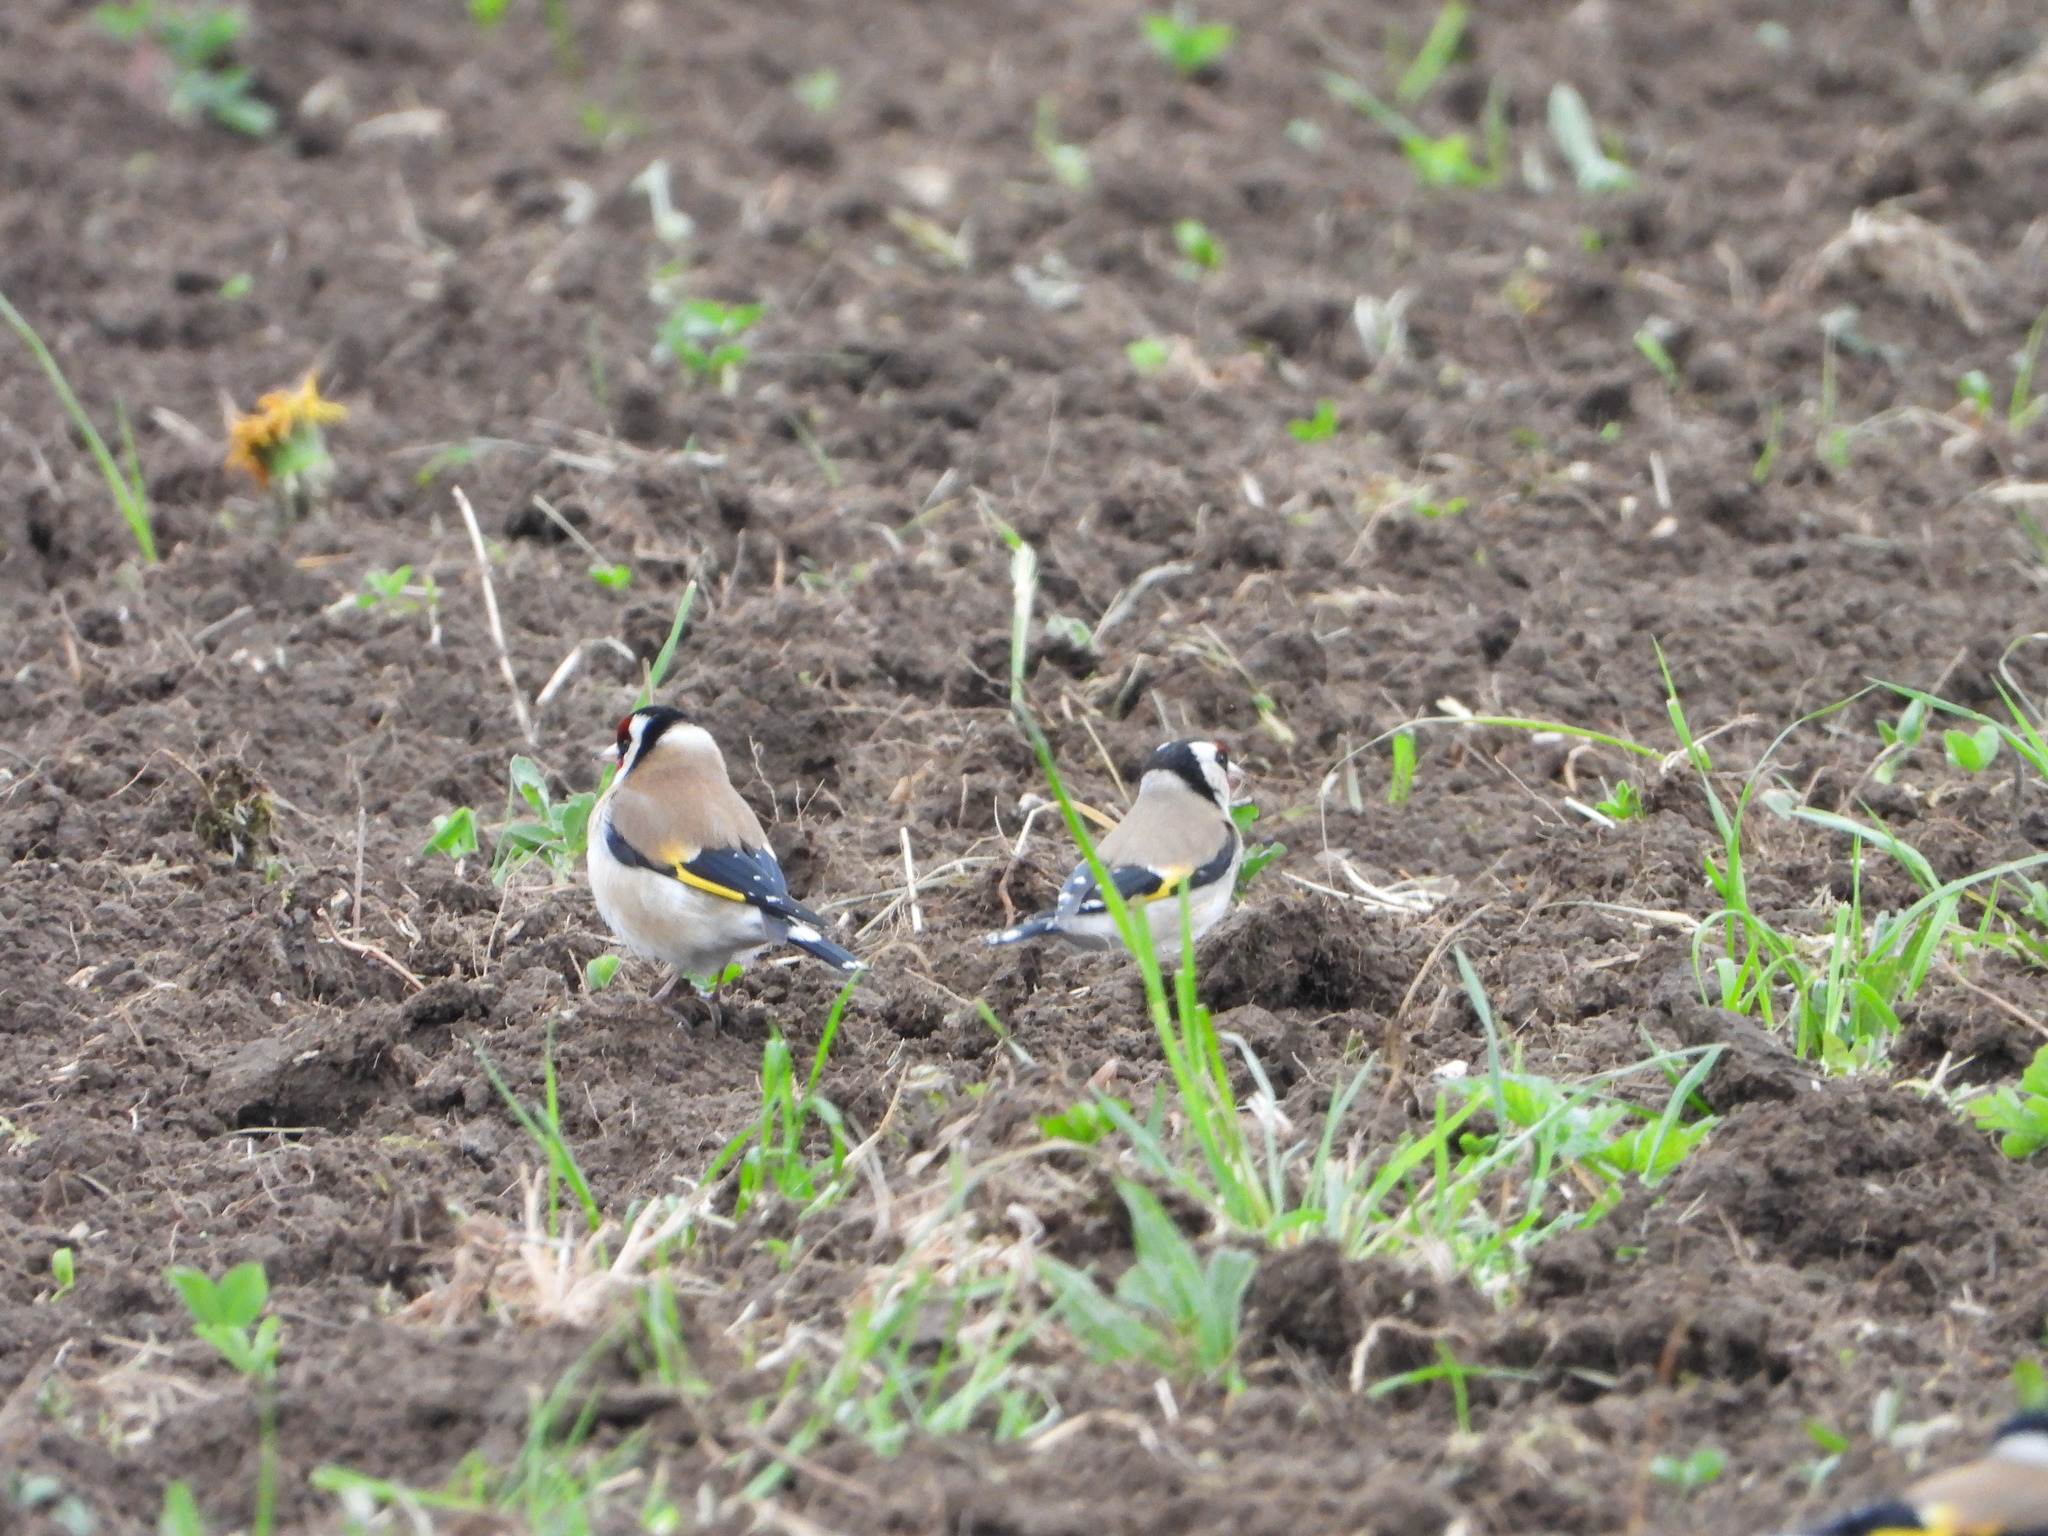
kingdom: Animalia
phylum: Chordata
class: Aves
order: Passeriformes
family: Fringillidae
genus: Carduelis
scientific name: Carduelis carduelis
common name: European goldfinch
